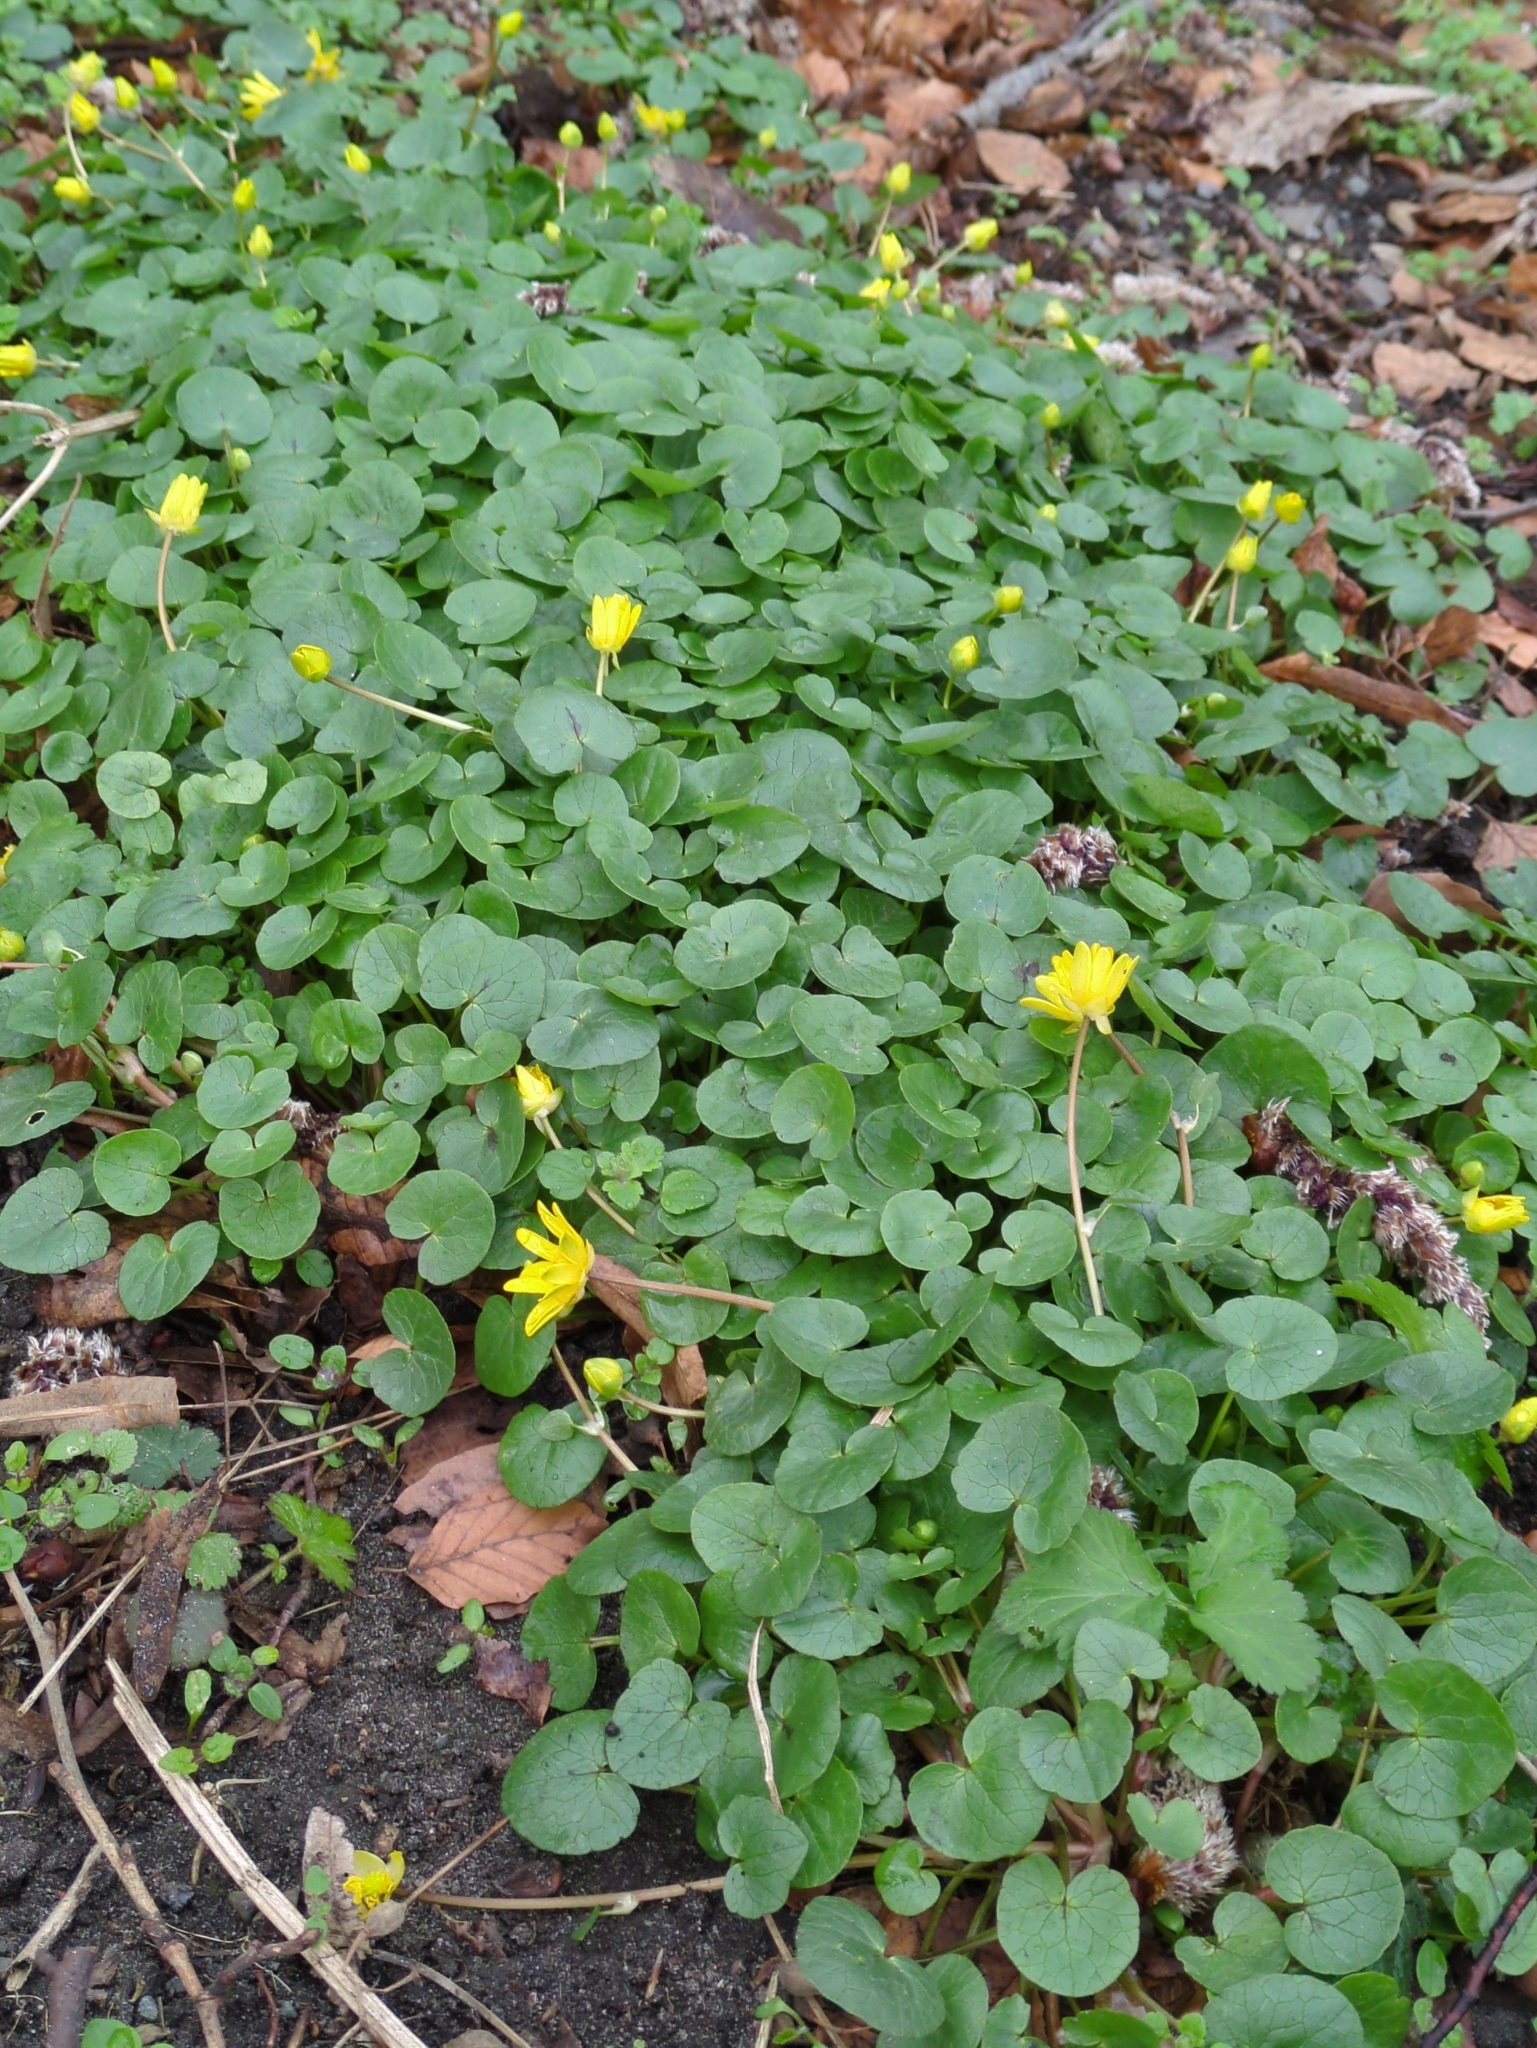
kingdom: Plantae
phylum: Tracheophyta
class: Magnoliopsida
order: Ranunculales
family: Ranunculaceae
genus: Ficaria
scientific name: Ficaria verna
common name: Lesser celandine
